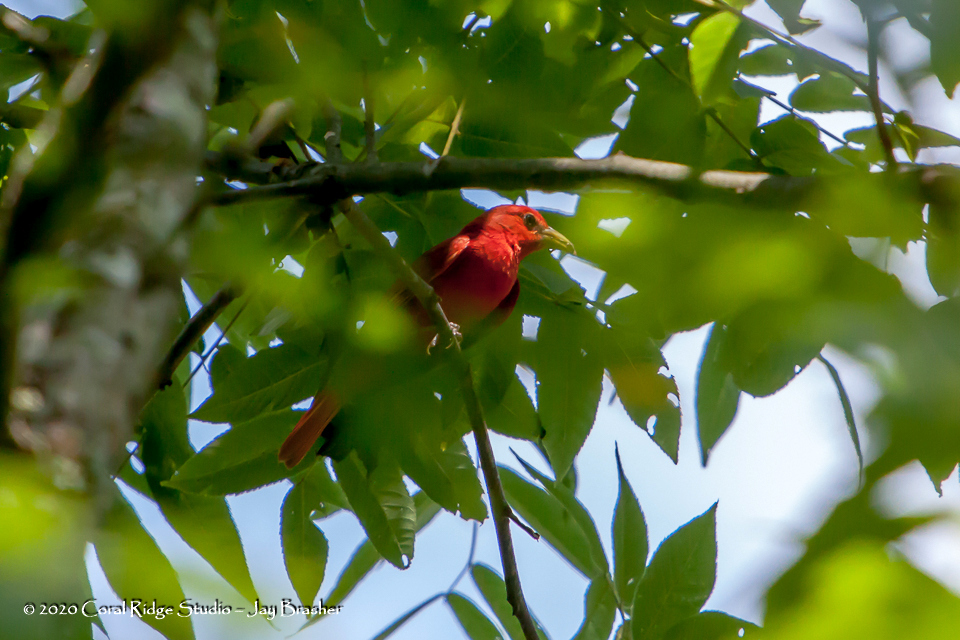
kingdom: Animalia
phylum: Chordata
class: Aves
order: Passeriformes
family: Cardinalidae
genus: Piranga
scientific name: Piranga rubra
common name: Summer tanager
